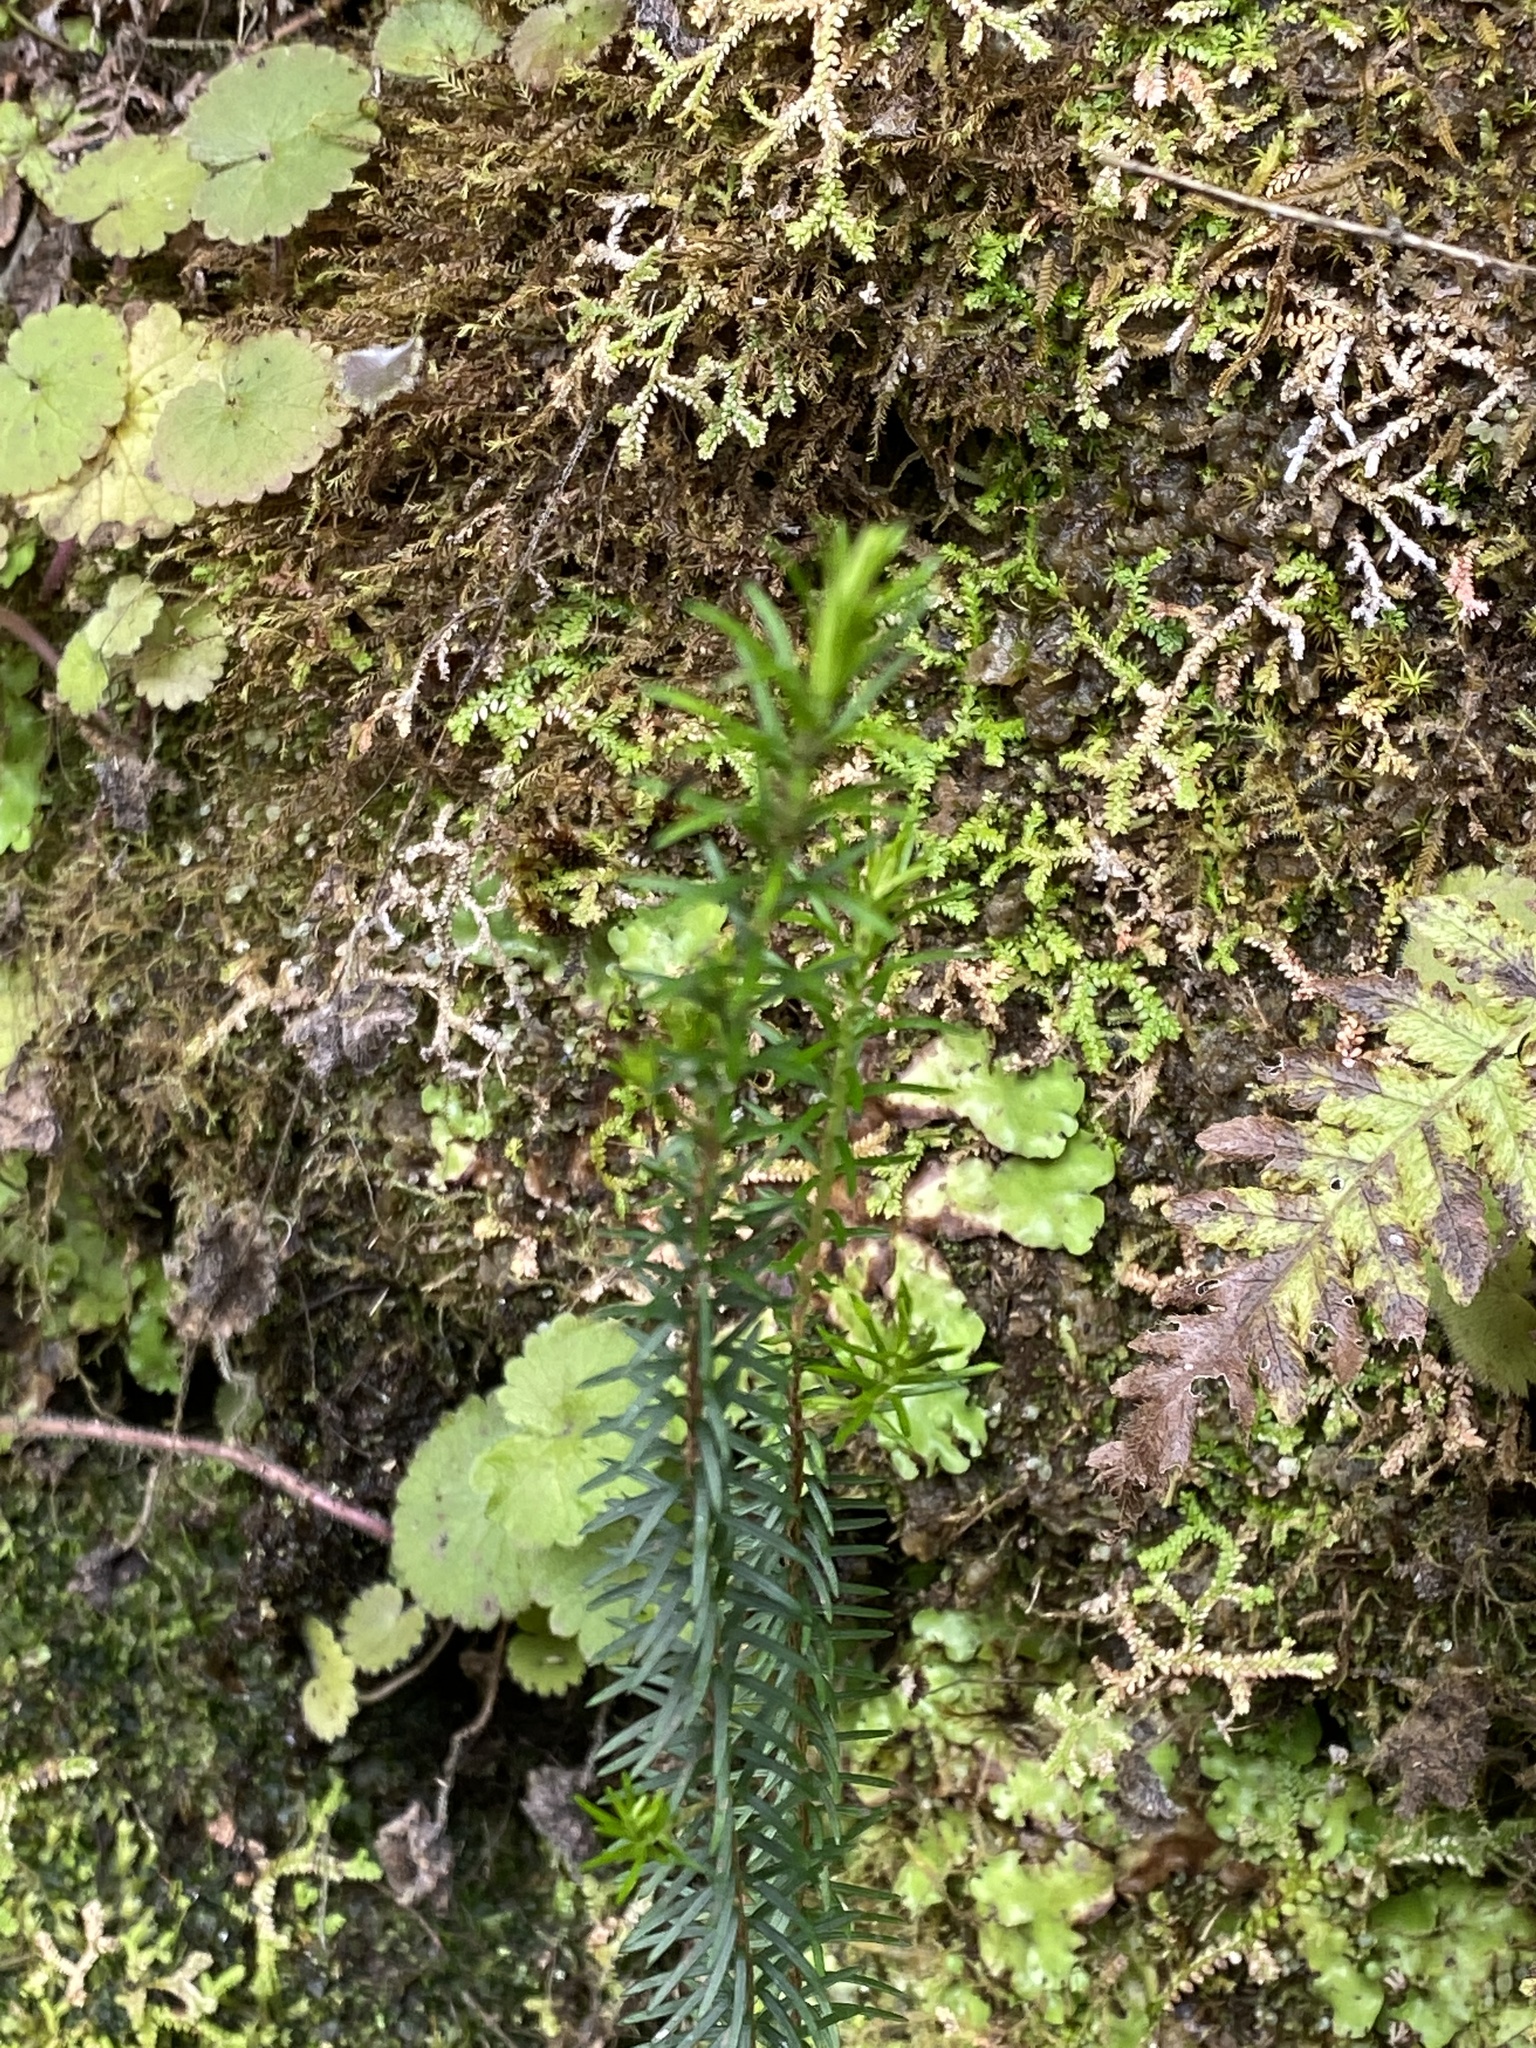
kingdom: Plantae
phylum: Tracheophyta
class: Magnoliopsida
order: Ericales
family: Ericaceae
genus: Erica
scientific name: Erica platycodon
